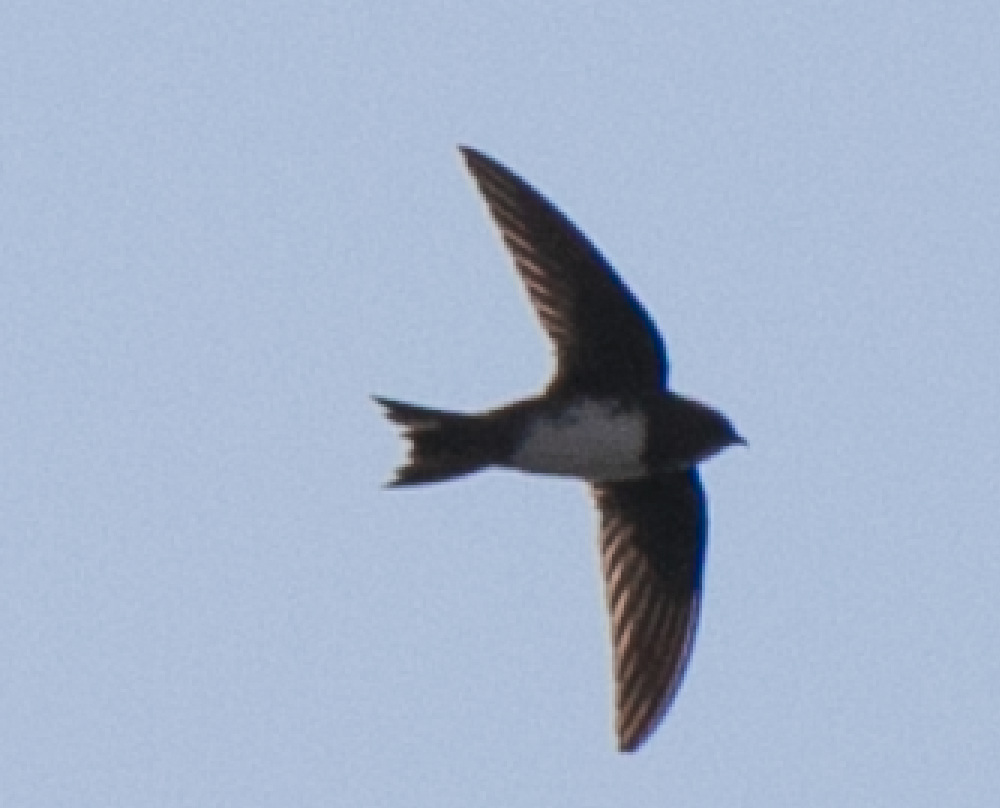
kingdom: Animalia
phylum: Chordata
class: Aves
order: Apodiformes
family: Apodidae
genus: Tachymarptis
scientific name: Tachymarptis melba
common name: Alpine swift
